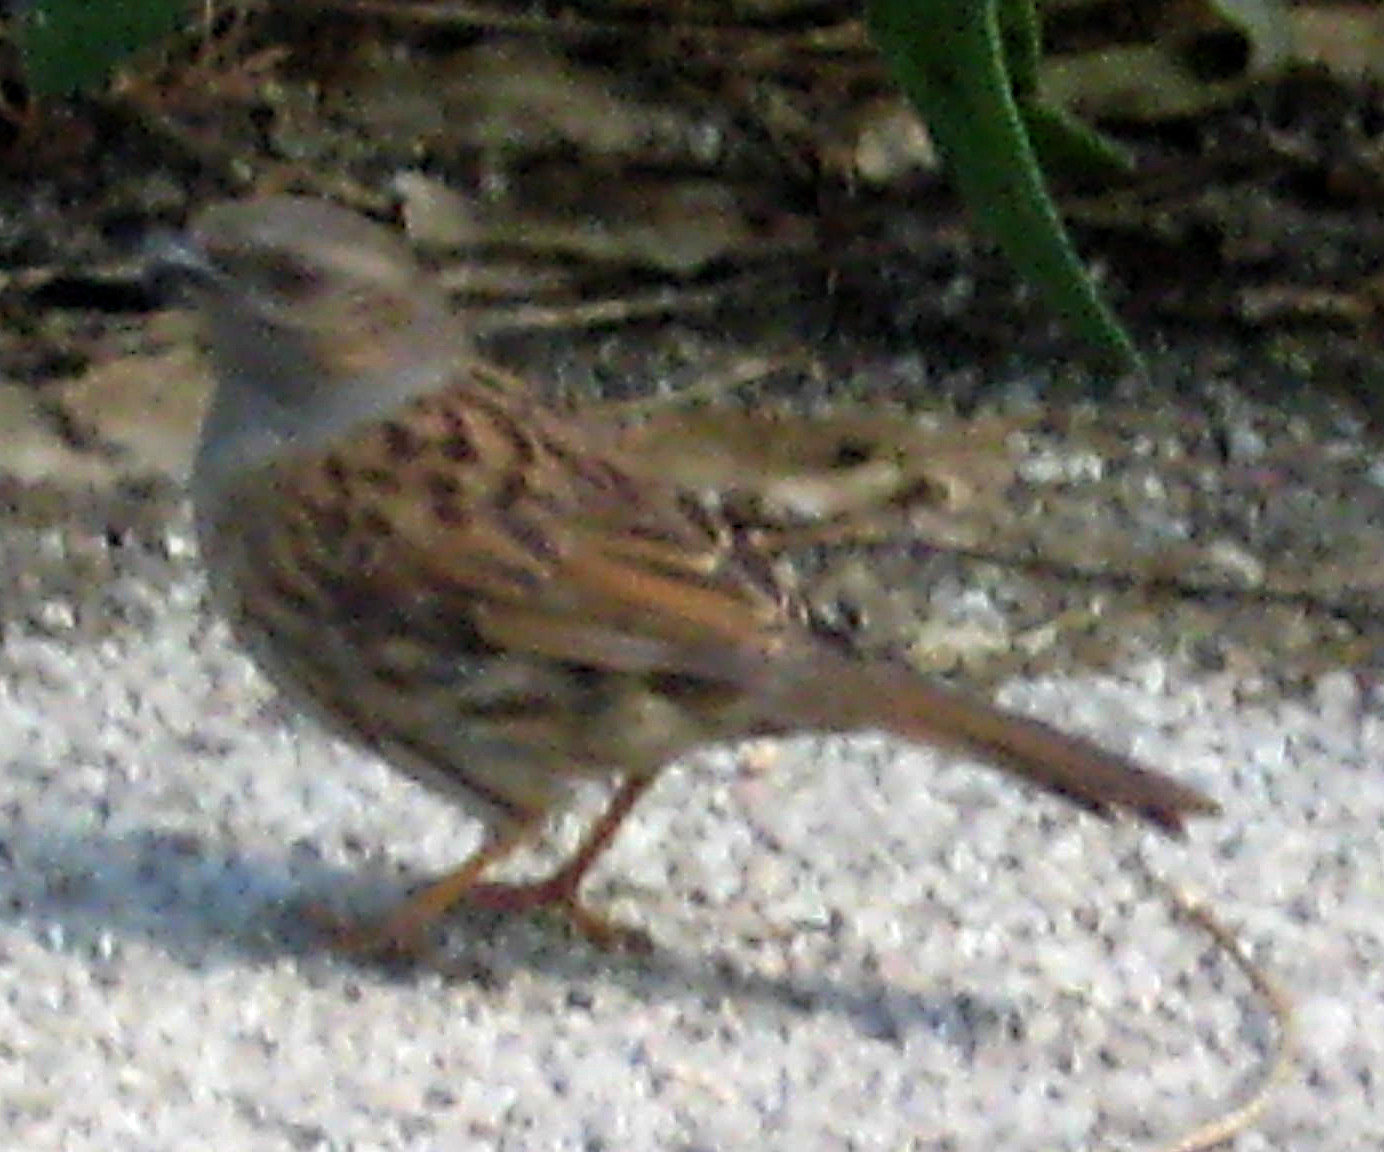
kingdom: Animalia
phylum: Chordata
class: Aves
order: Passeriformes
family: Prunellidae
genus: Prunella
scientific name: Prunella modularis
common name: Dunnock
